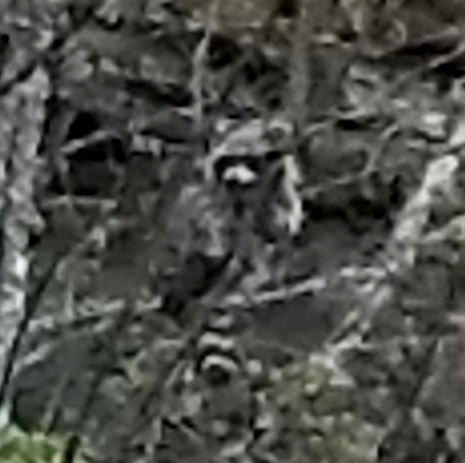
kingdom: Animalia
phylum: Chordata
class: Mammalia
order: Carnivora
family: Procyonidae
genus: Procyon
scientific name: Procyon lotor
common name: Raccoon
